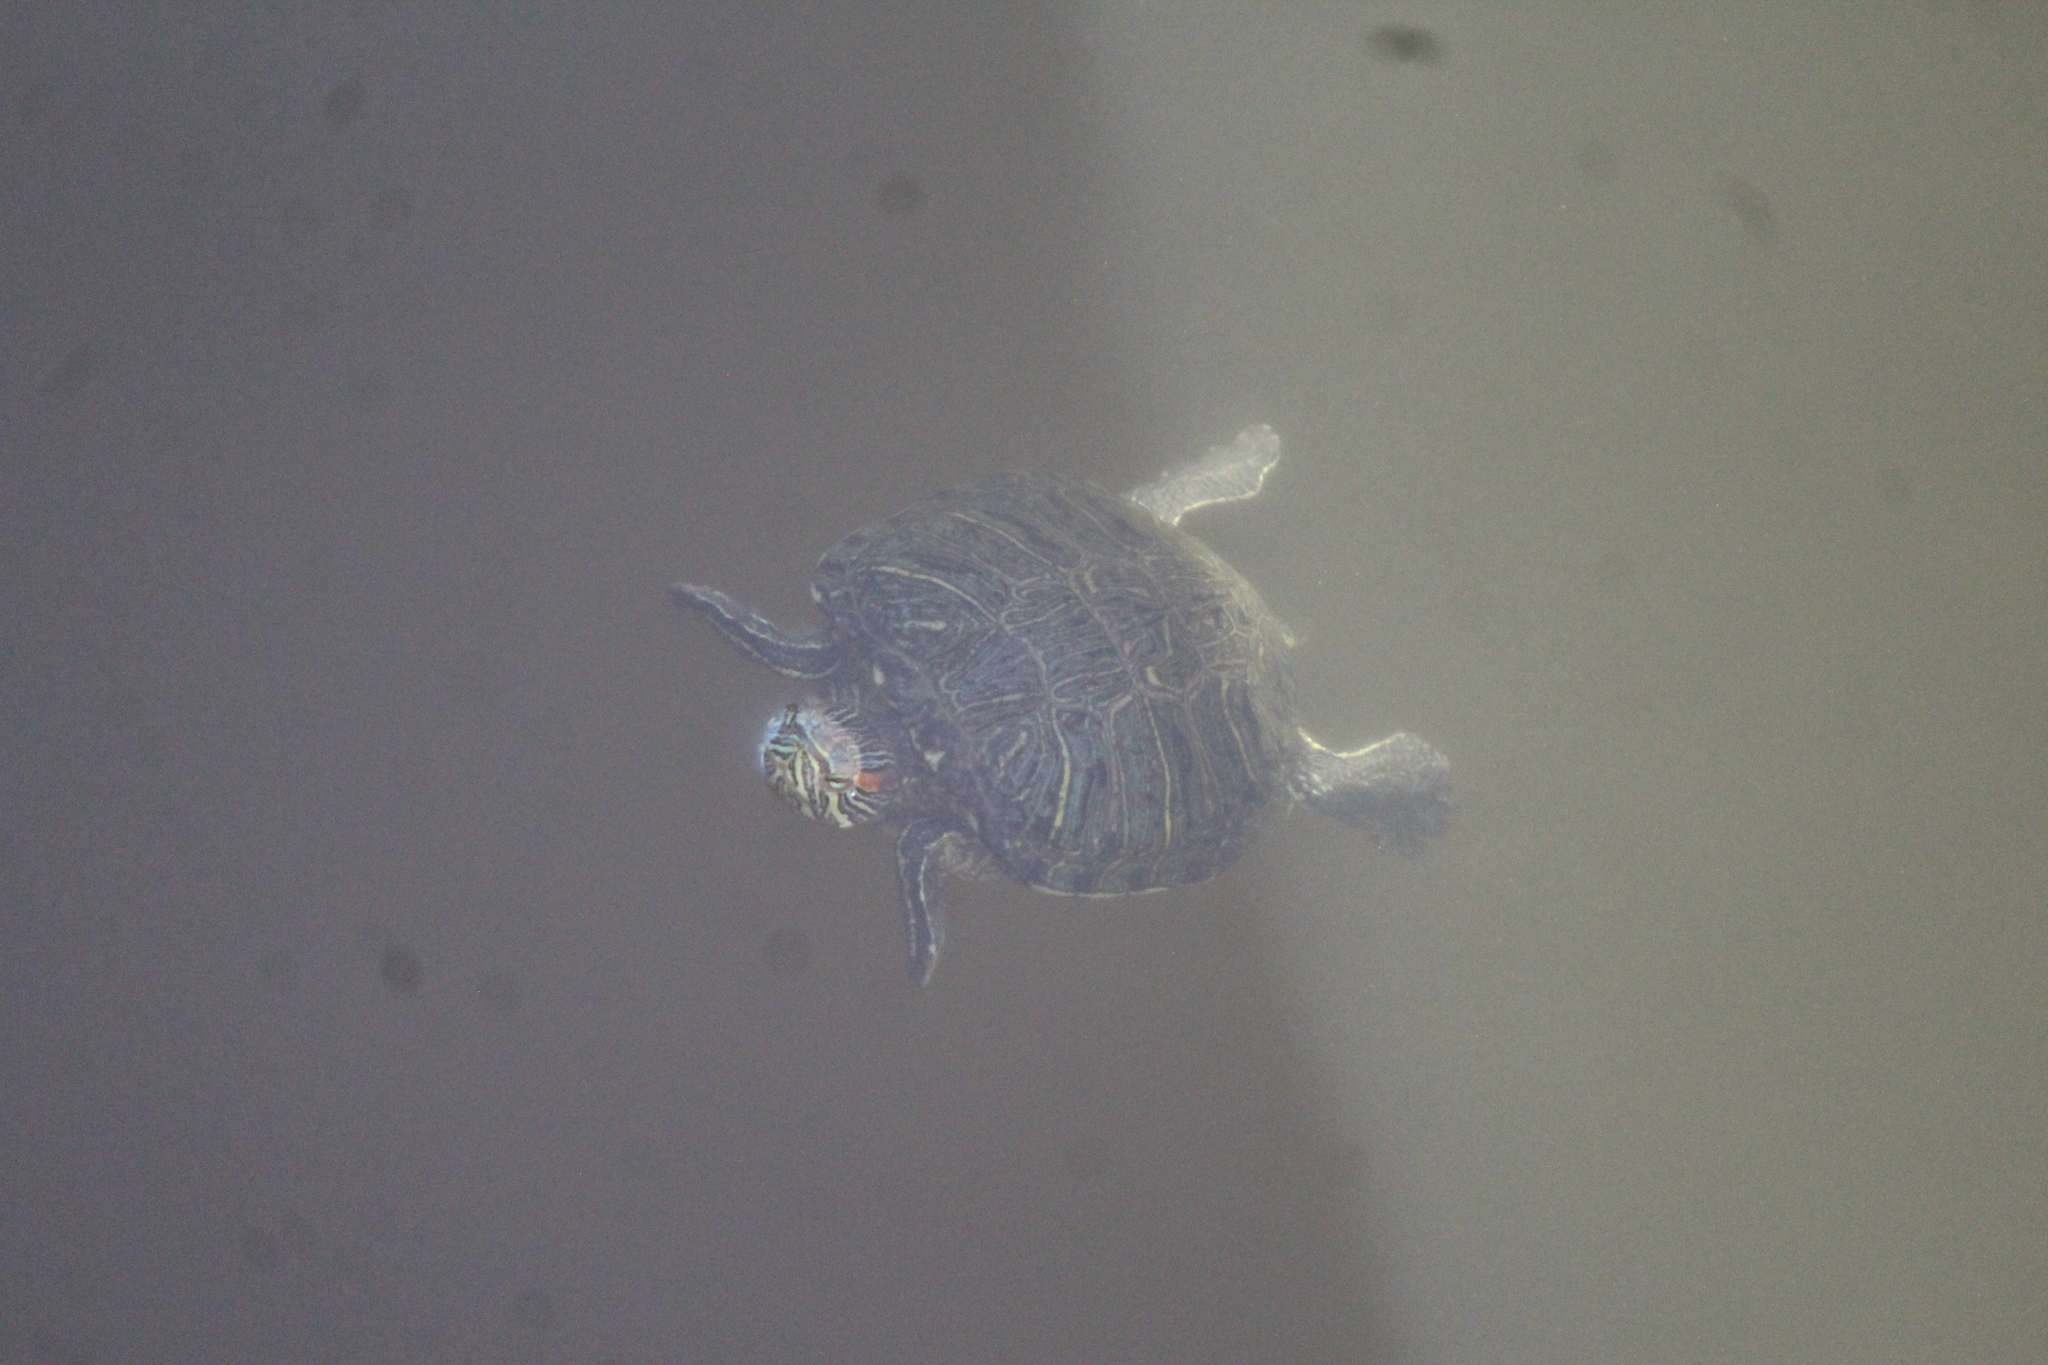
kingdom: Animalia
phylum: Chordata
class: Testudines
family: Emydidae
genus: Trachemys
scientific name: Trachemys scripta
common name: Slider
